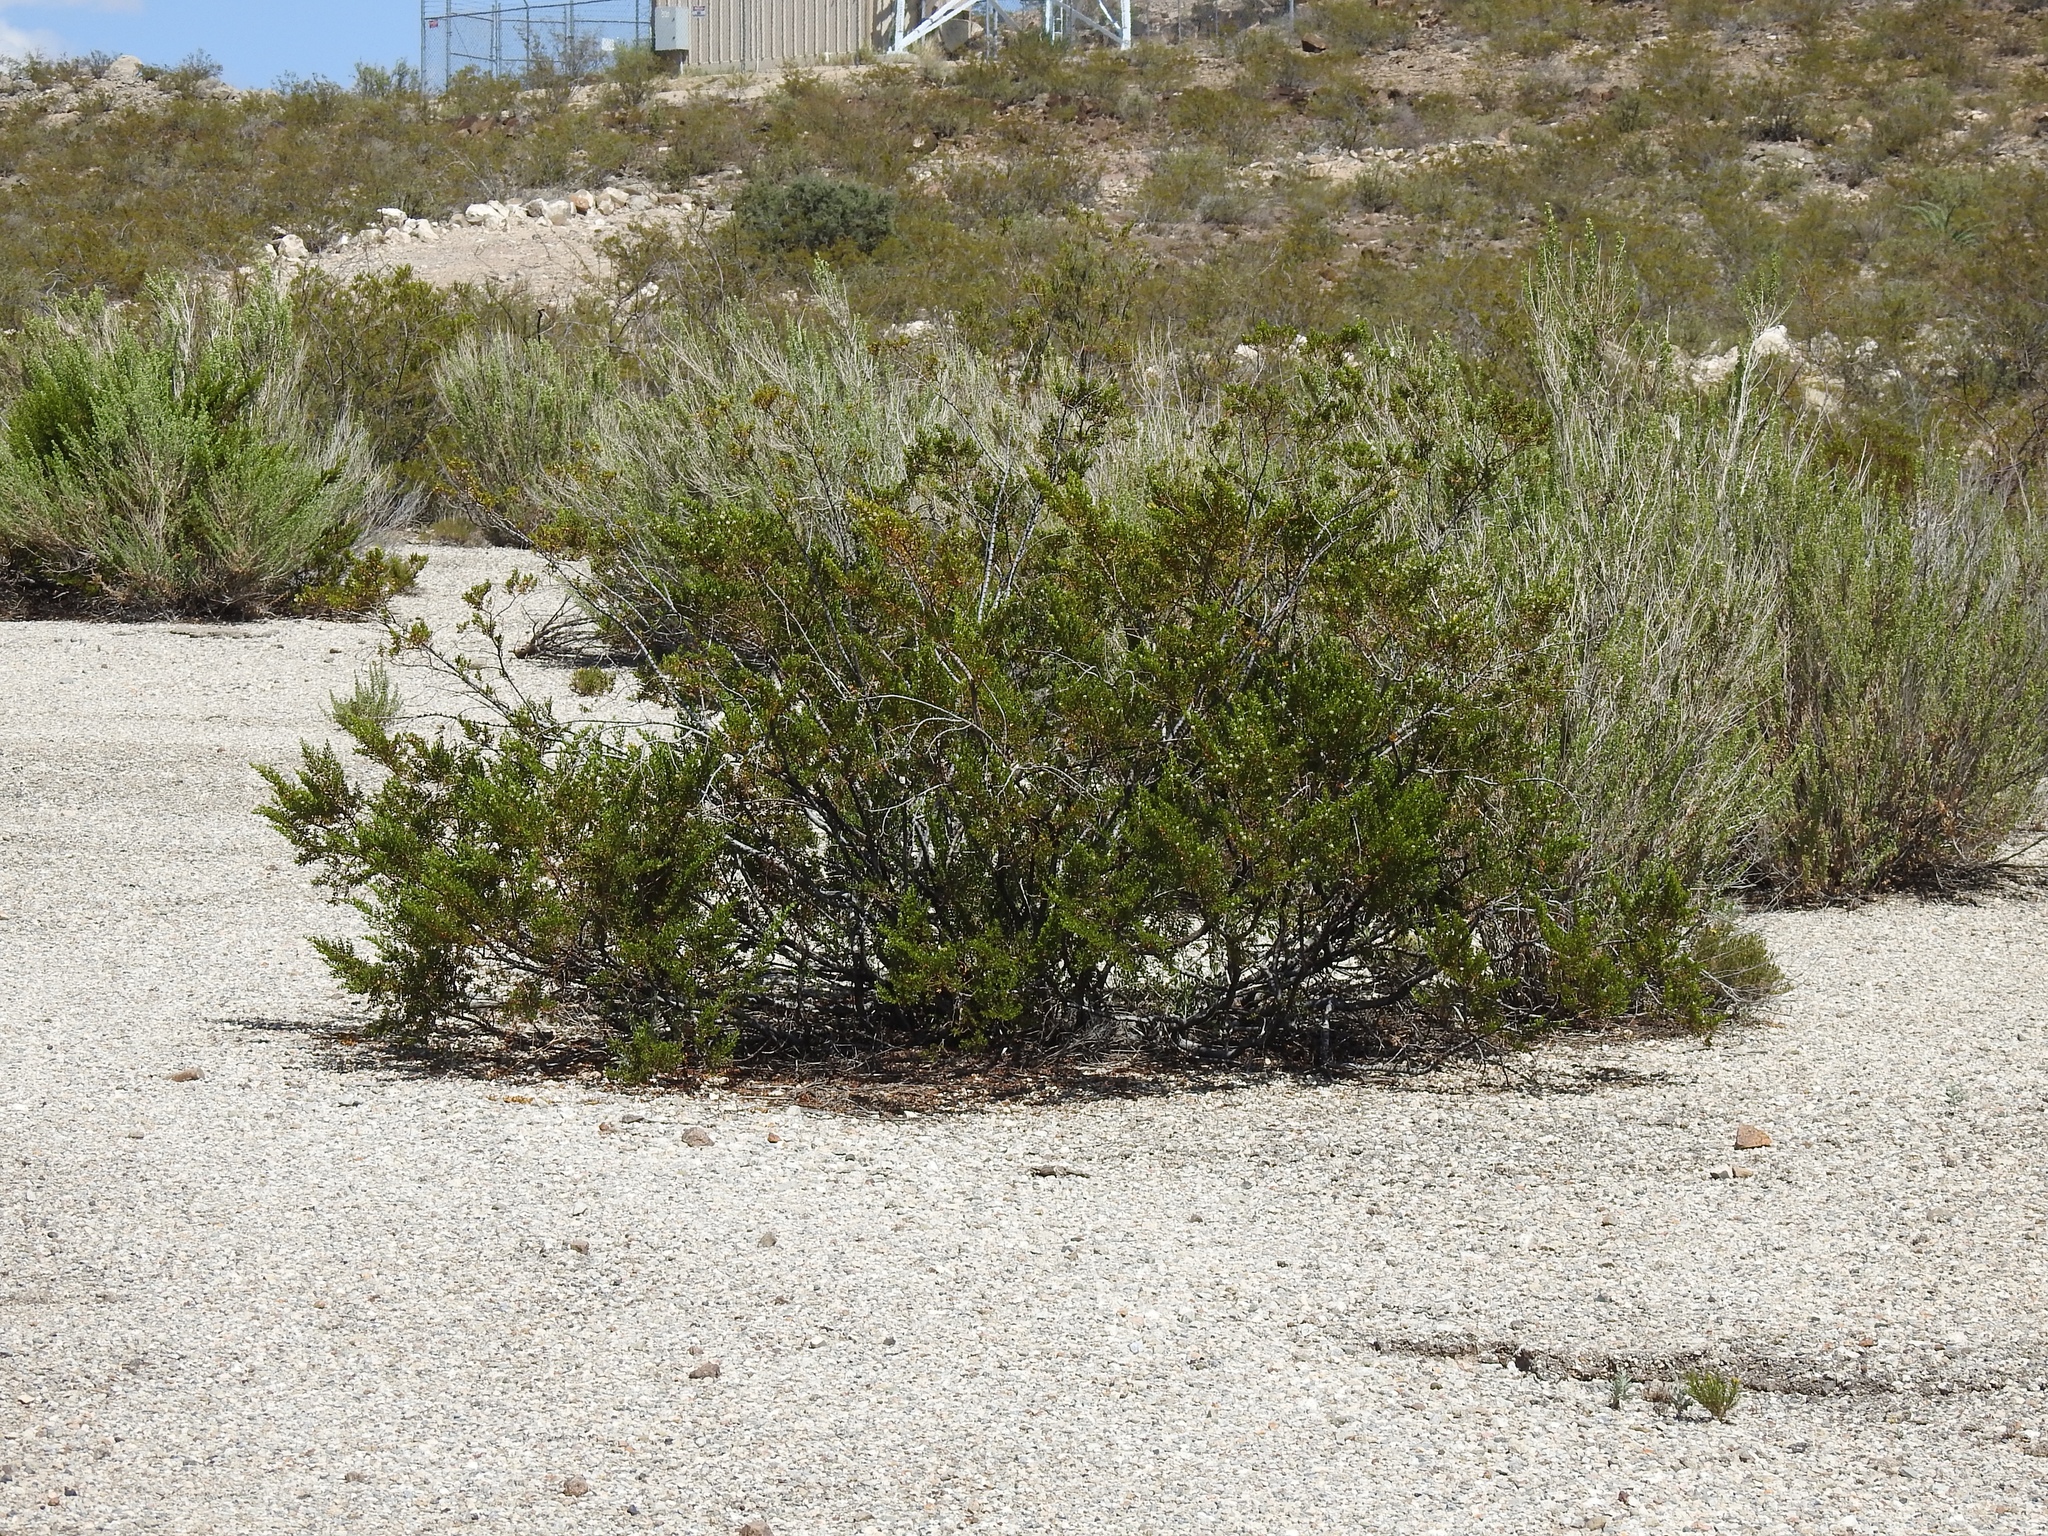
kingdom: Plantae
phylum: Tracheophyta
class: Magnoliopsida
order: Zygophyllales
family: Zygophyllaceae
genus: Larrea
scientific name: Larrea tridentata
